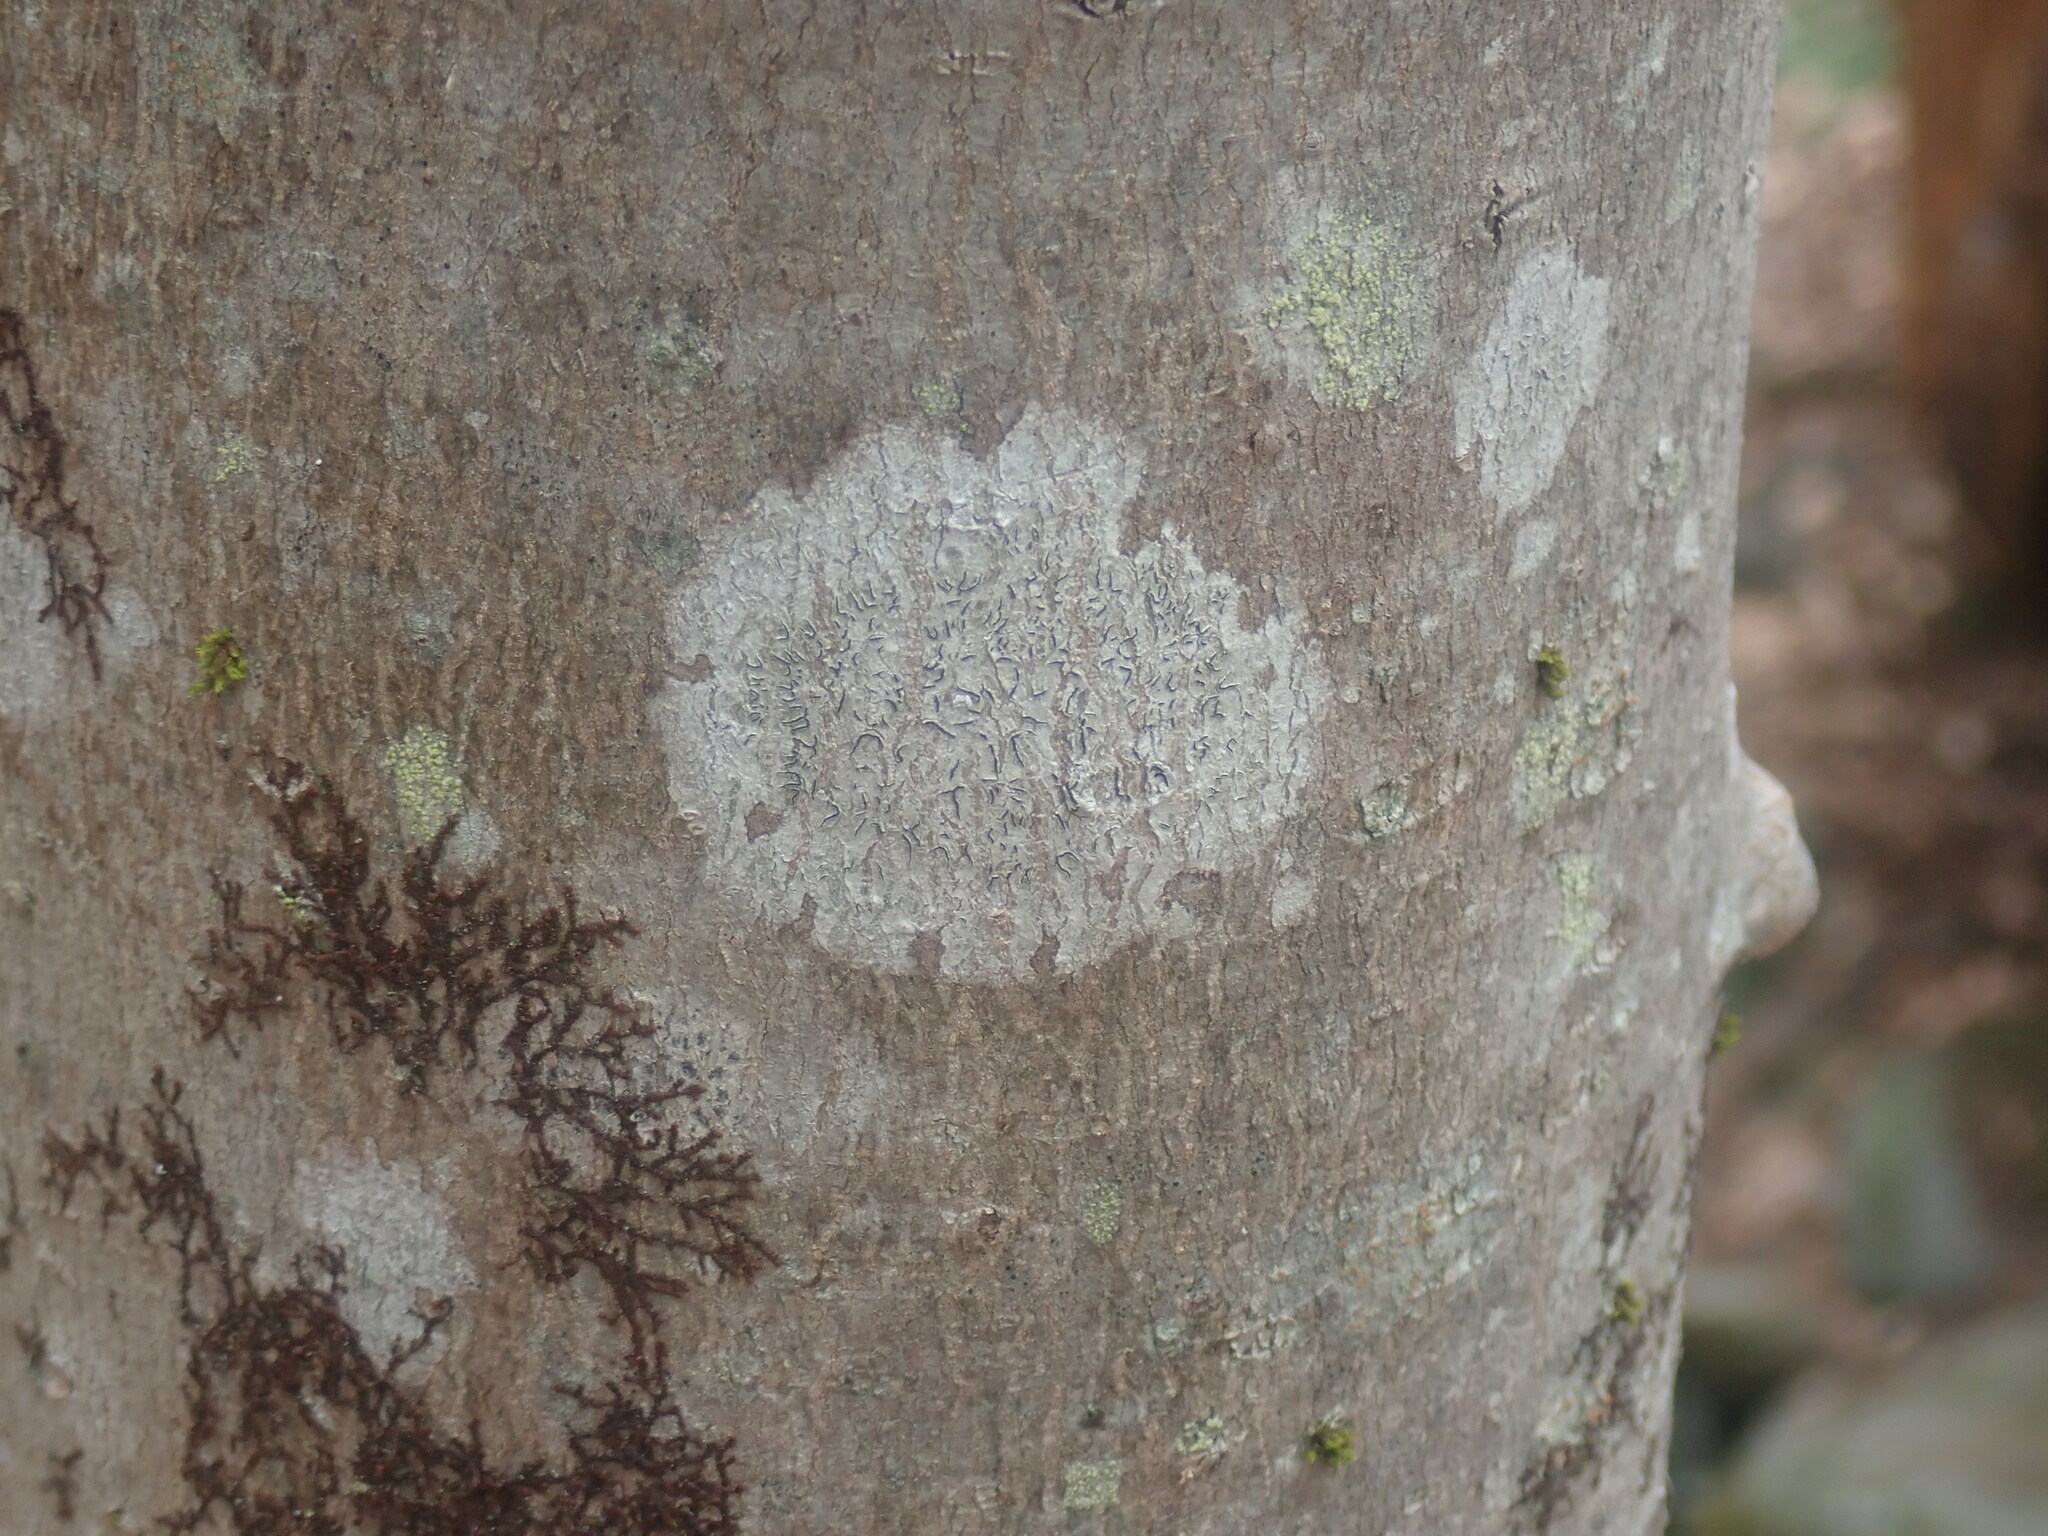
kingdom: Fungi
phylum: Ascomycota
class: Lecanoromycetes
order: Ostropales
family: Graphidaceae
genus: Graphis
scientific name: Graphis scripta
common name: Script lichen
